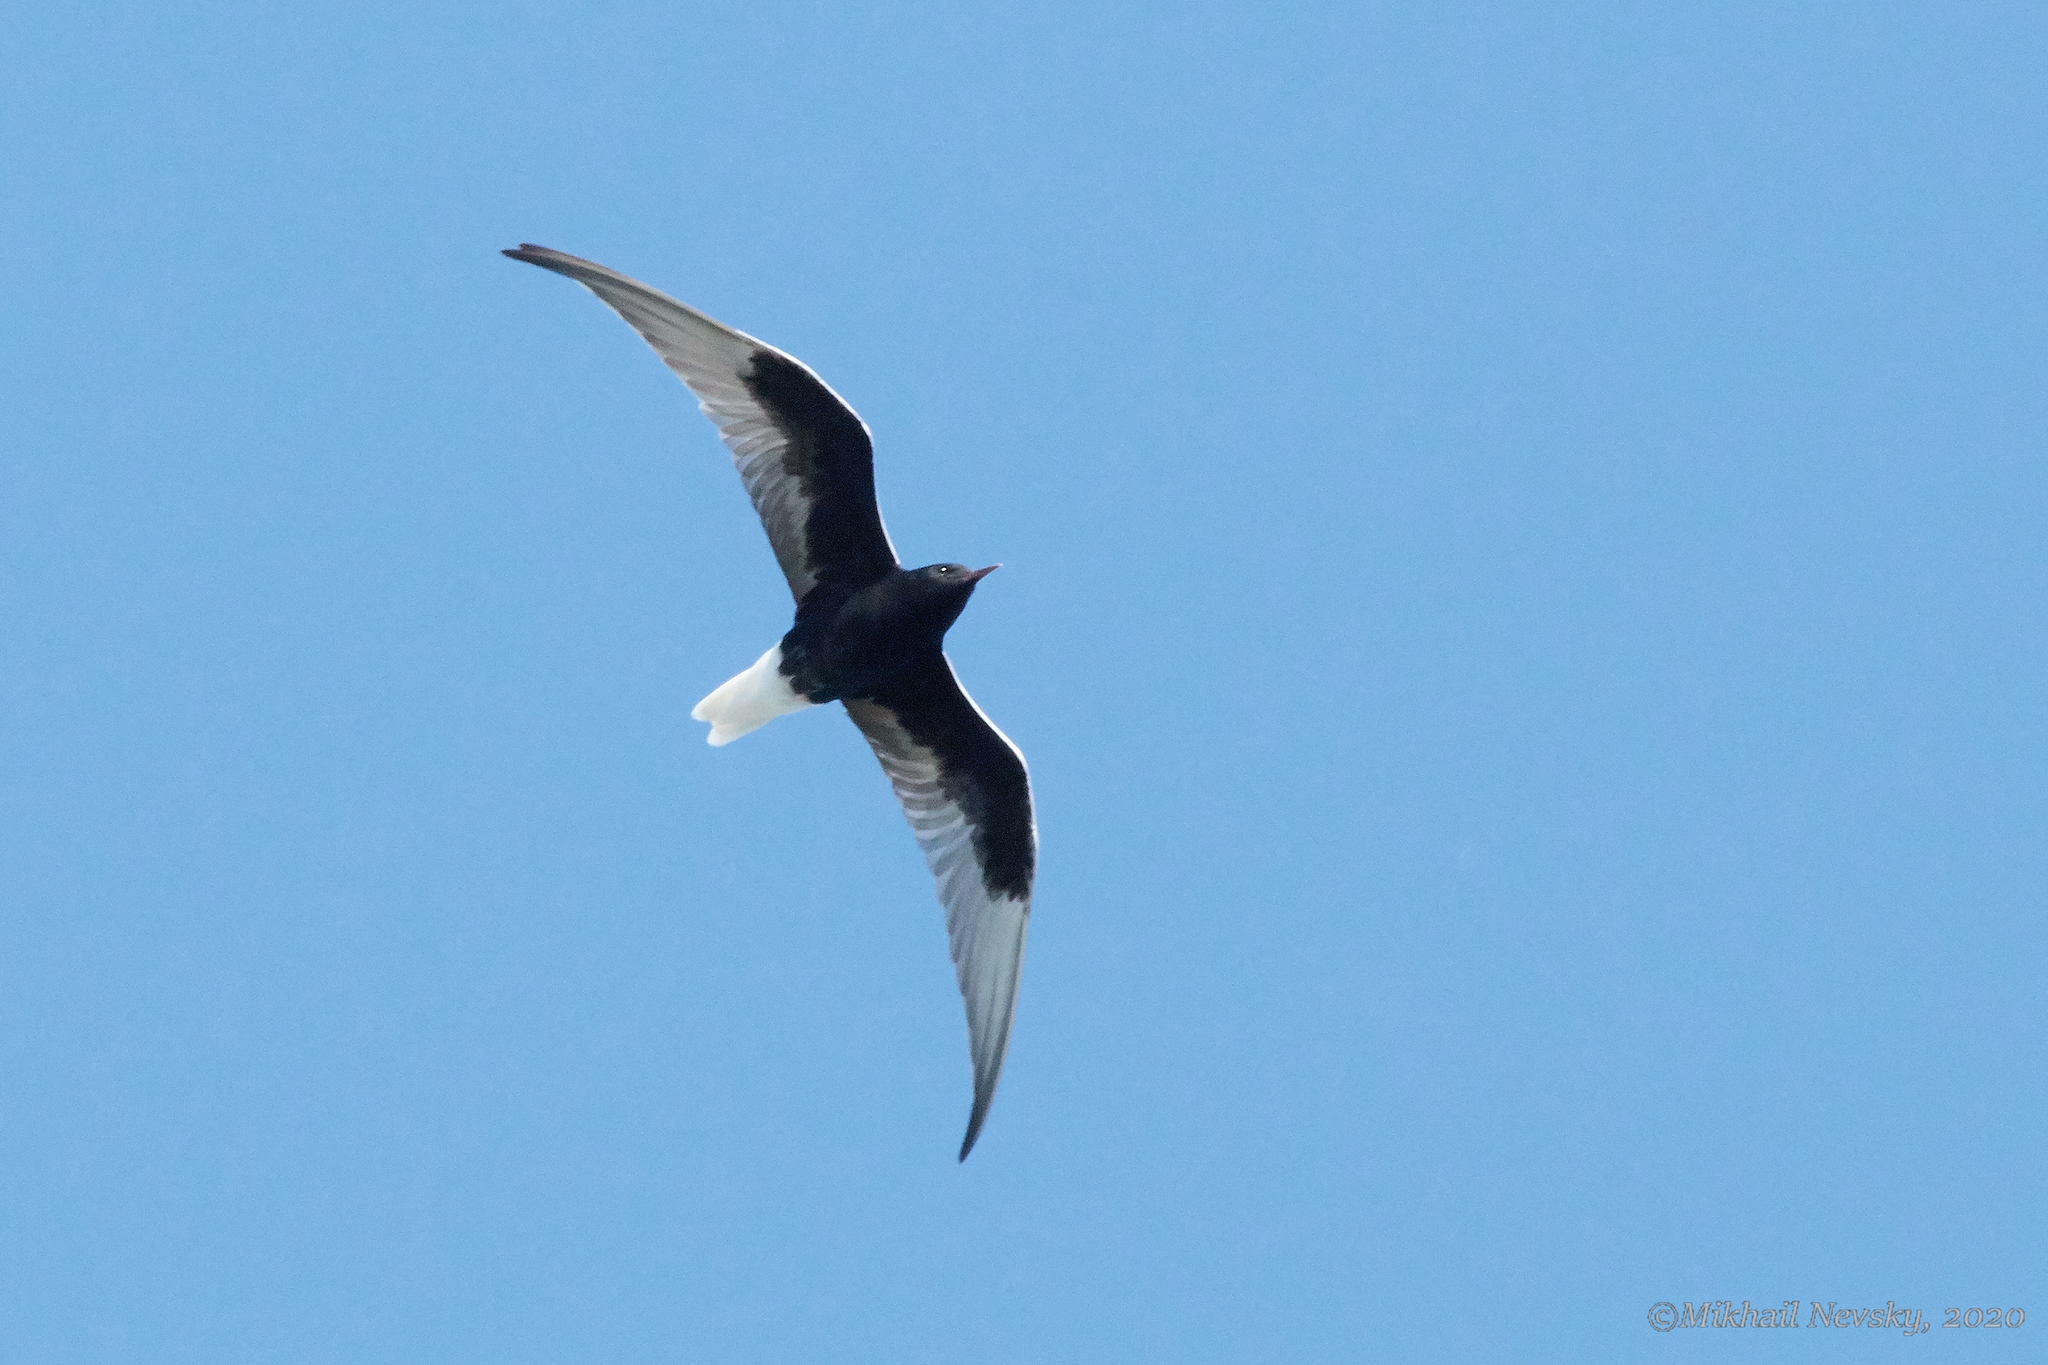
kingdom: Animalia
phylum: Chordata
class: Aves
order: Charadriiformes
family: Laridae
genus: Chlidonias
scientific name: Chlidonias leucopterus
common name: White-winged tern
